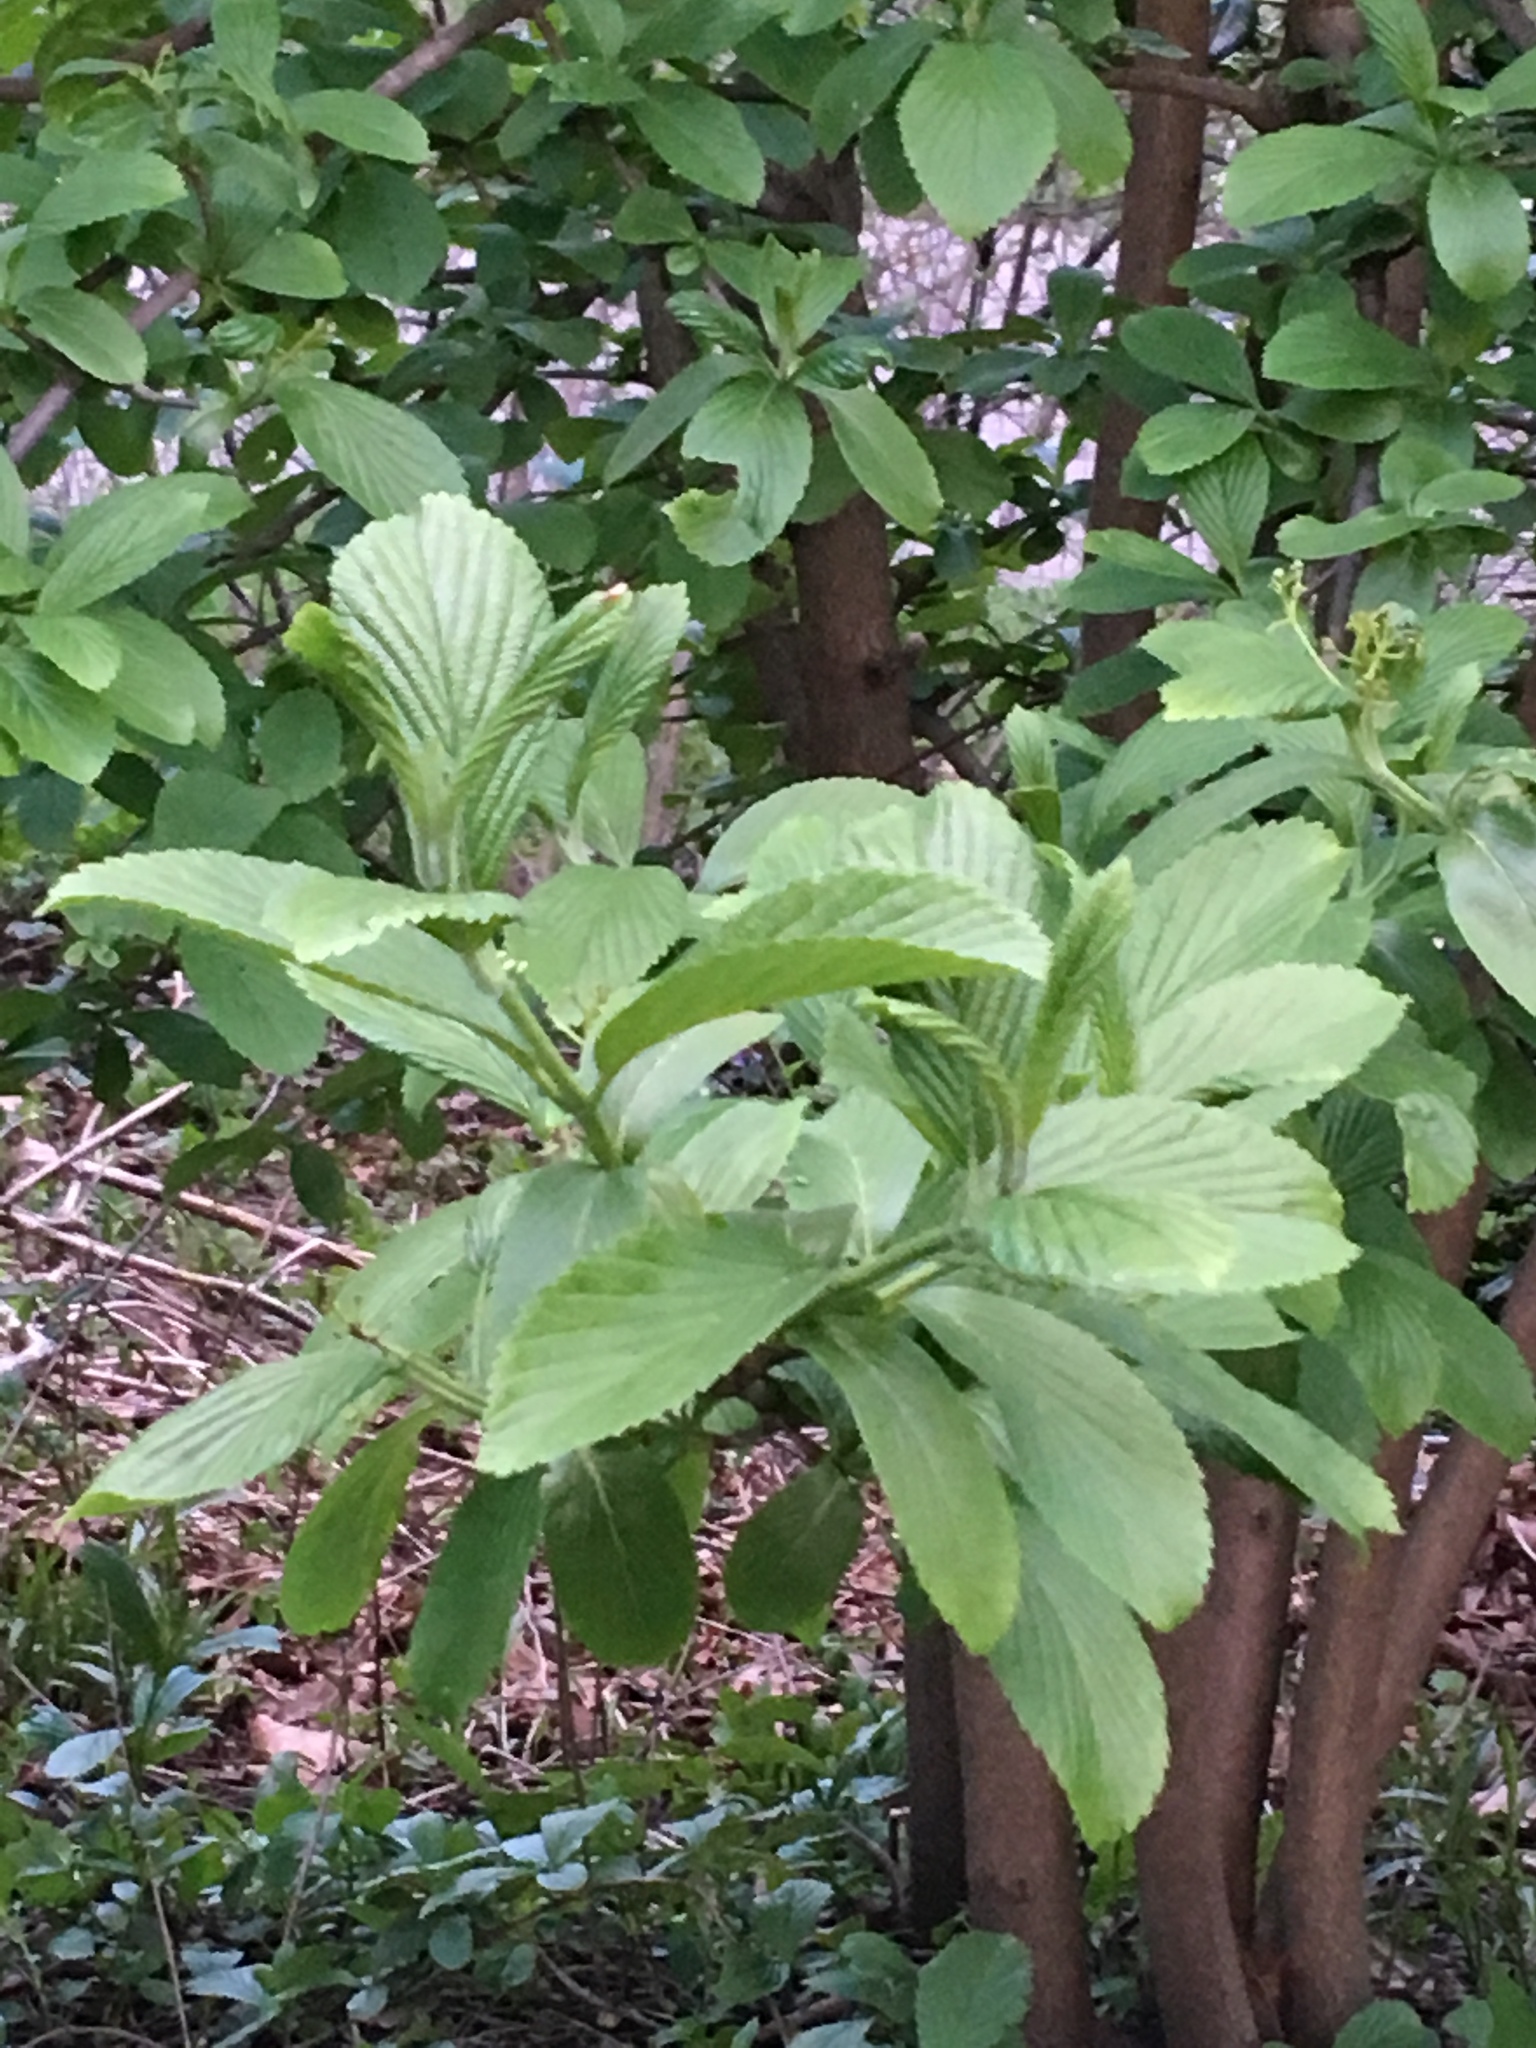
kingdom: Plantae
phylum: Tracheophyta
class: Magnoliopsida
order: Dipsacales
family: Viburnaceae
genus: Viburnum
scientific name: Viburnum sieboldii
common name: Siebold's arrowwood
